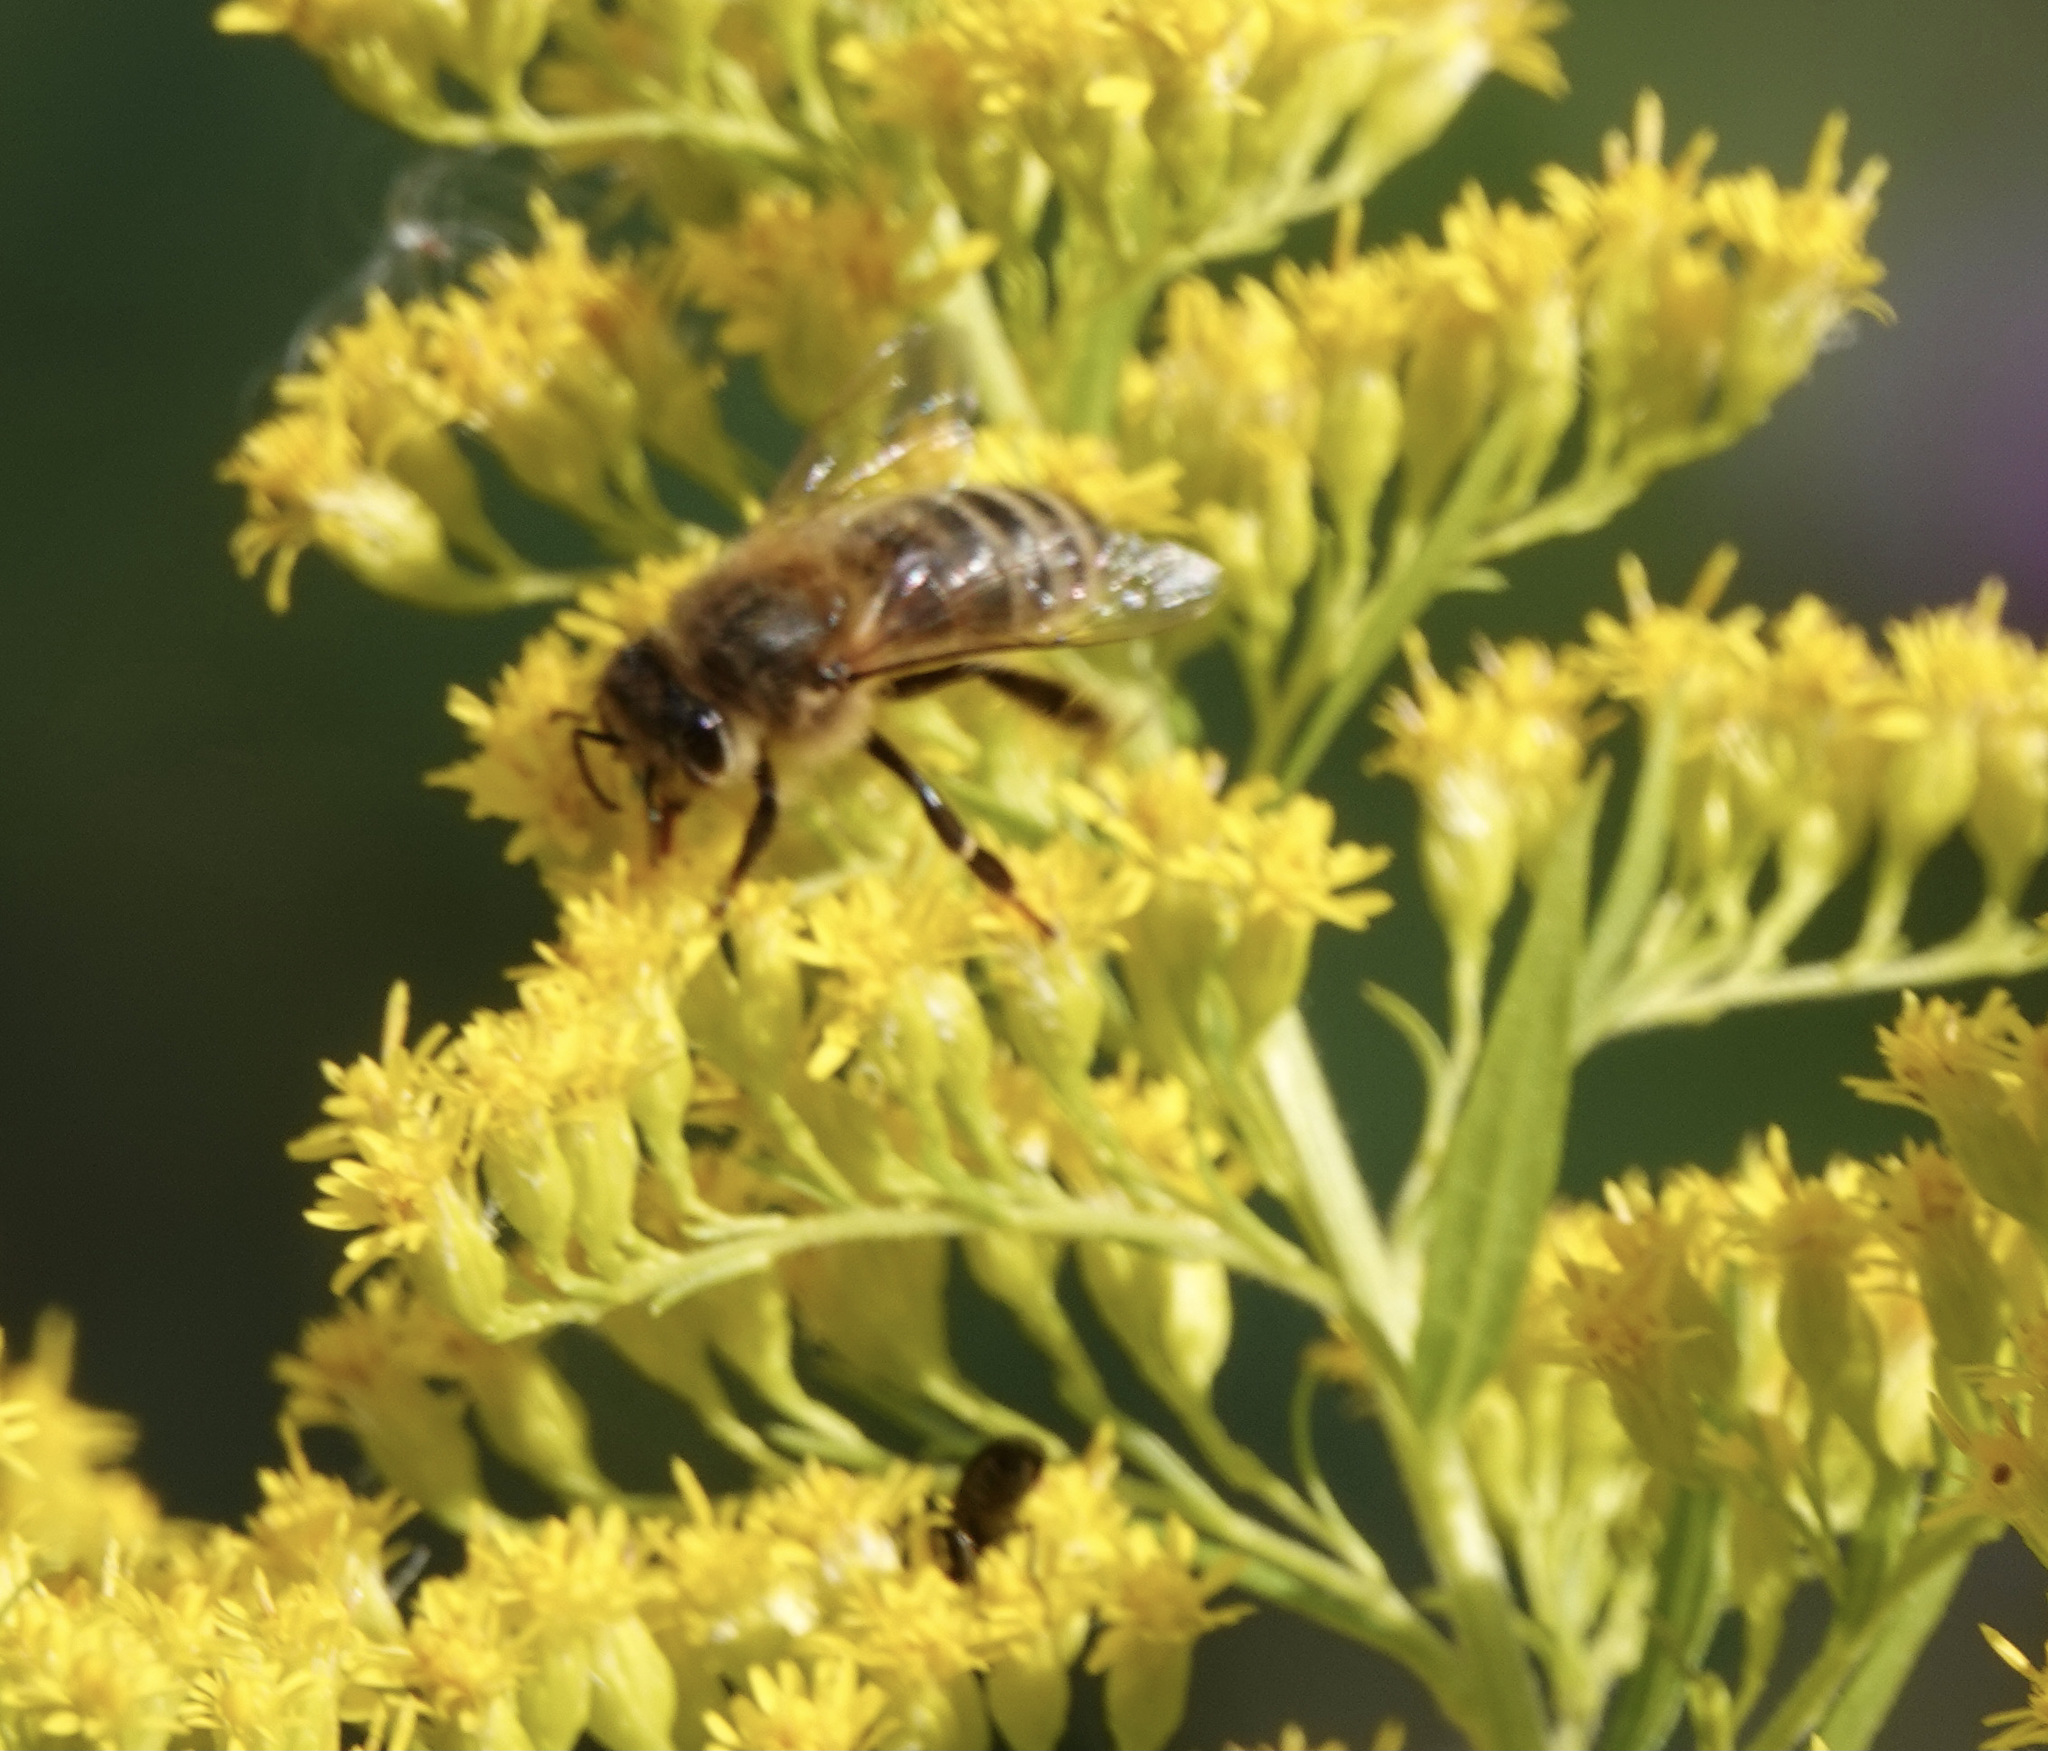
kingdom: Animalia
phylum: Arthropoda
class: Insecta
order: Hymenoptera
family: Apidae
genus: Apis
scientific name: Apis mellifera
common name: Honey bee
